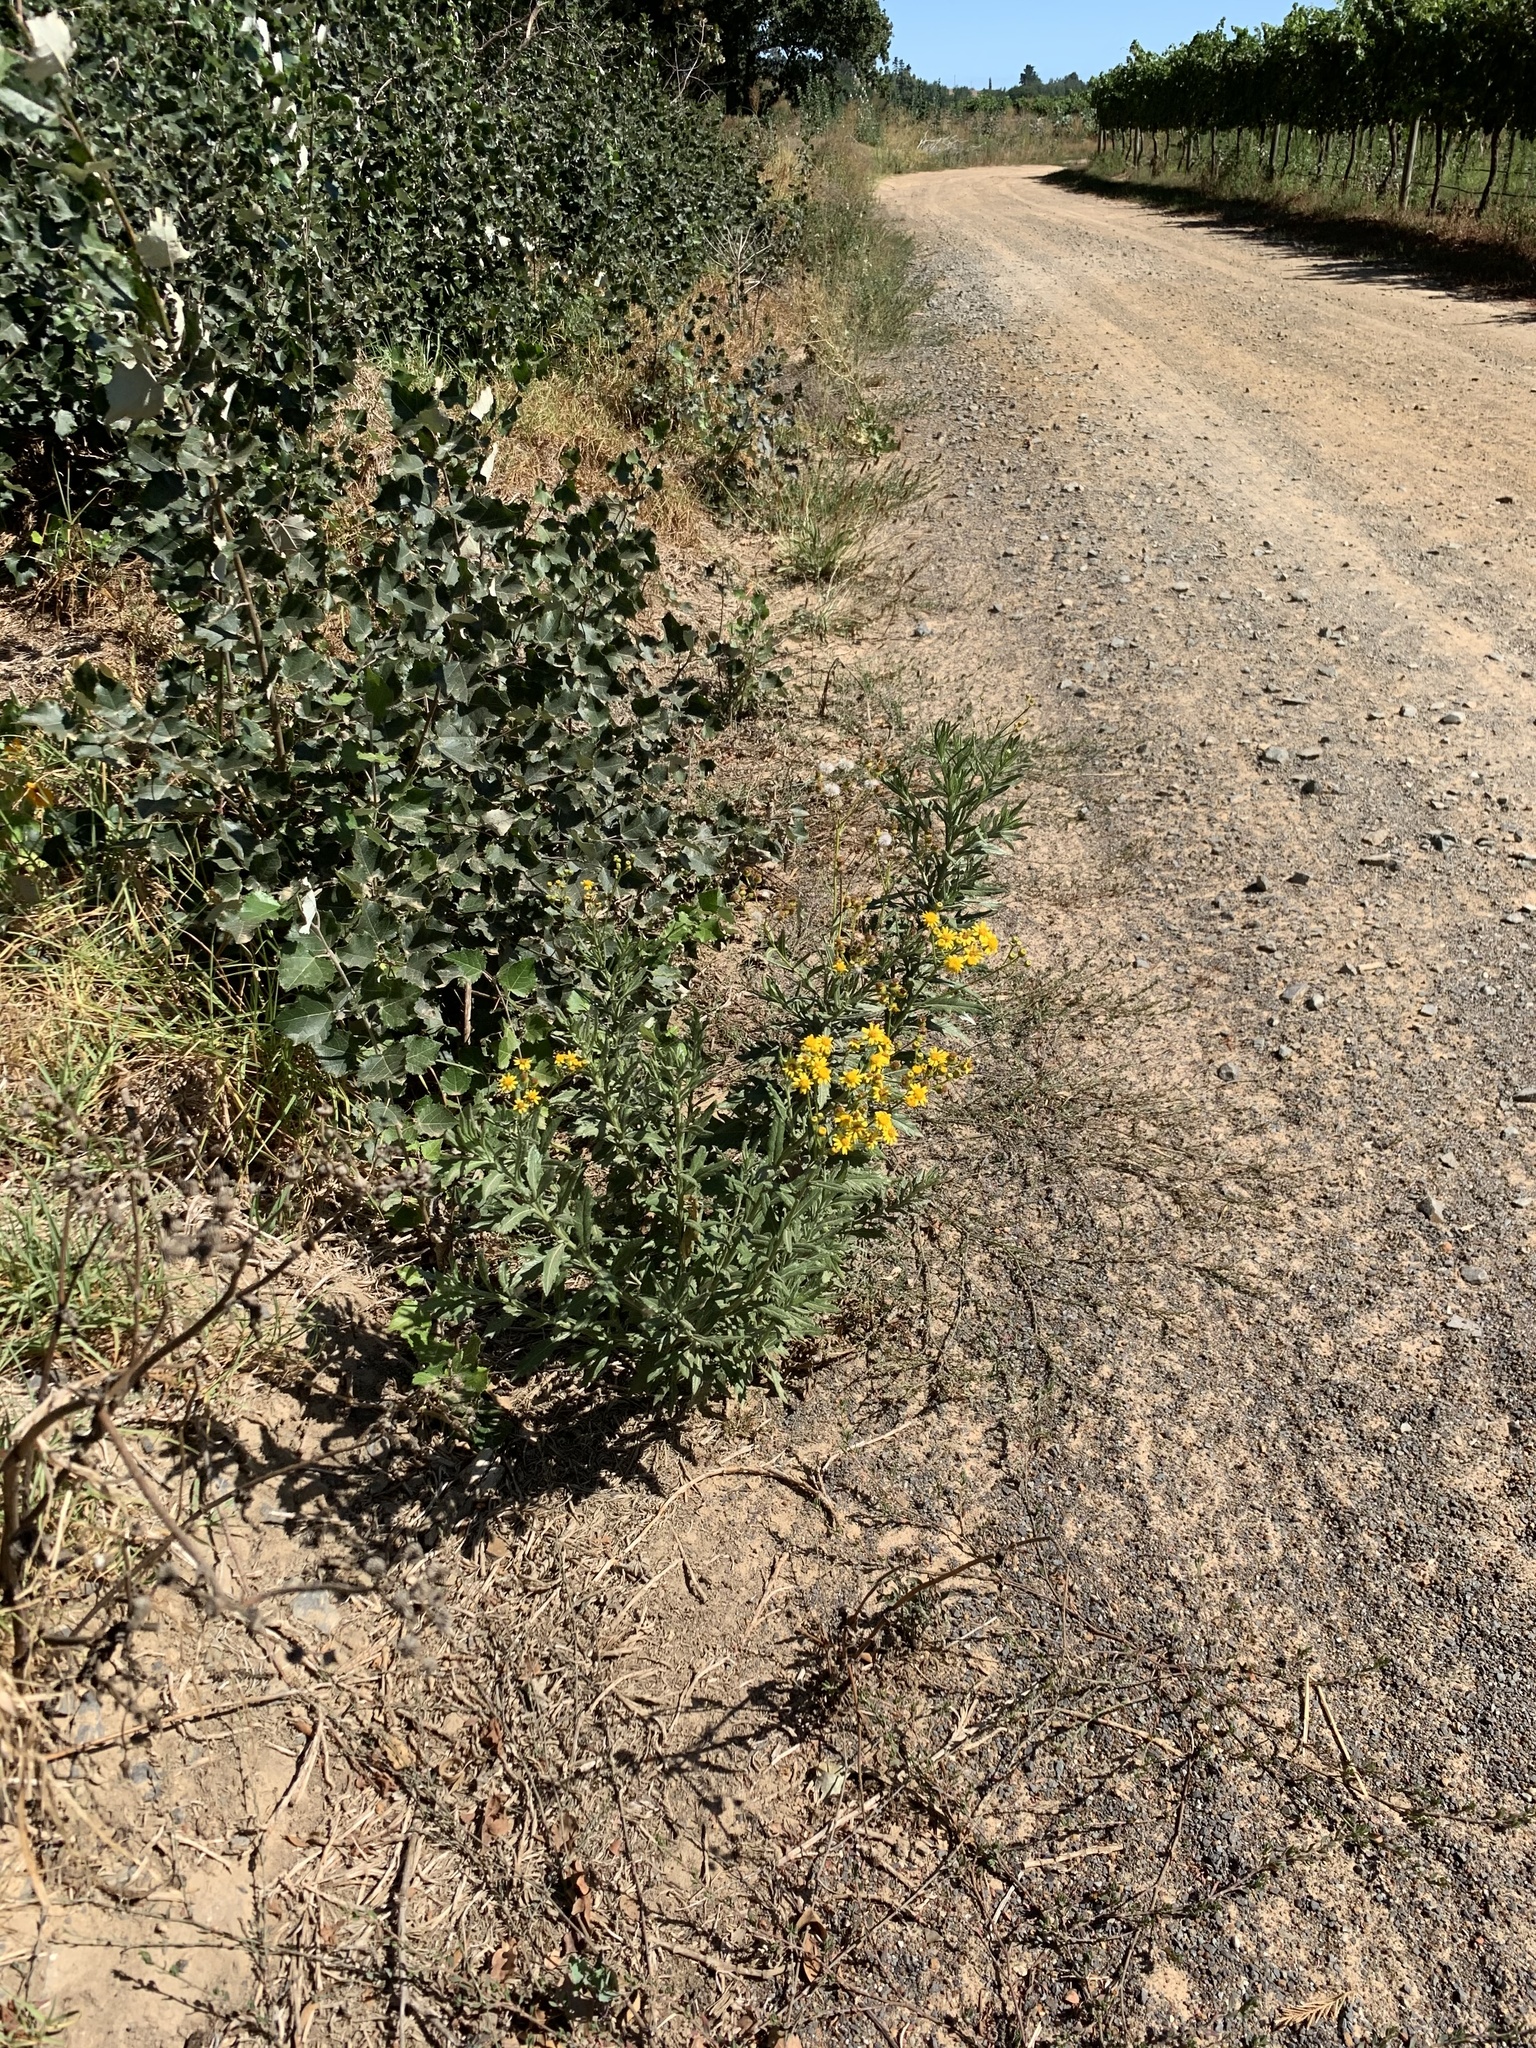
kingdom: Plantae
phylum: Tracheophyta
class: Magnoliopsida
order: Asterales
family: Asteraceae
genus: Senecio
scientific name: Senecio pterophorus
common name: Shoddy ragwort
